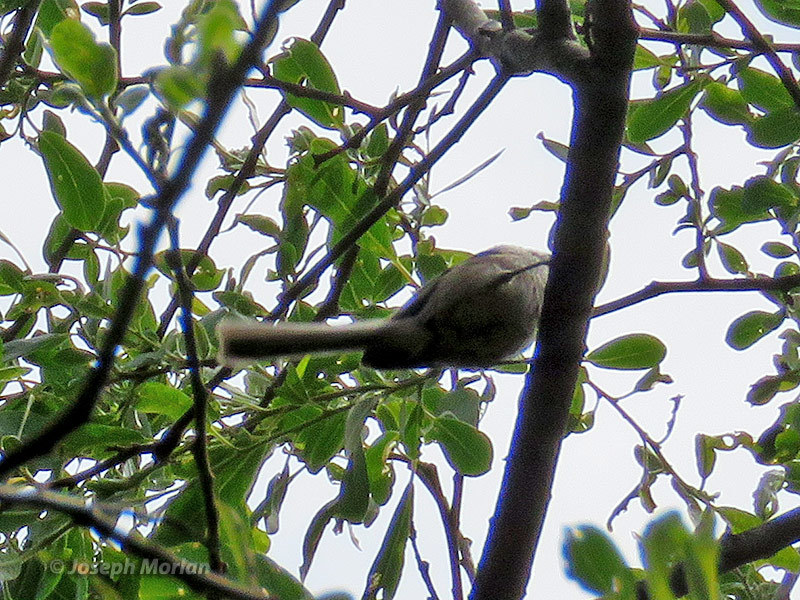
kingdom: Animalia
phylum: Chordata
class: Aves
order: Passeriformes
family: Aegithalidae
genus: Psaltriparus
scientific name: Psaltriparus minimus
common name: American bushtit
